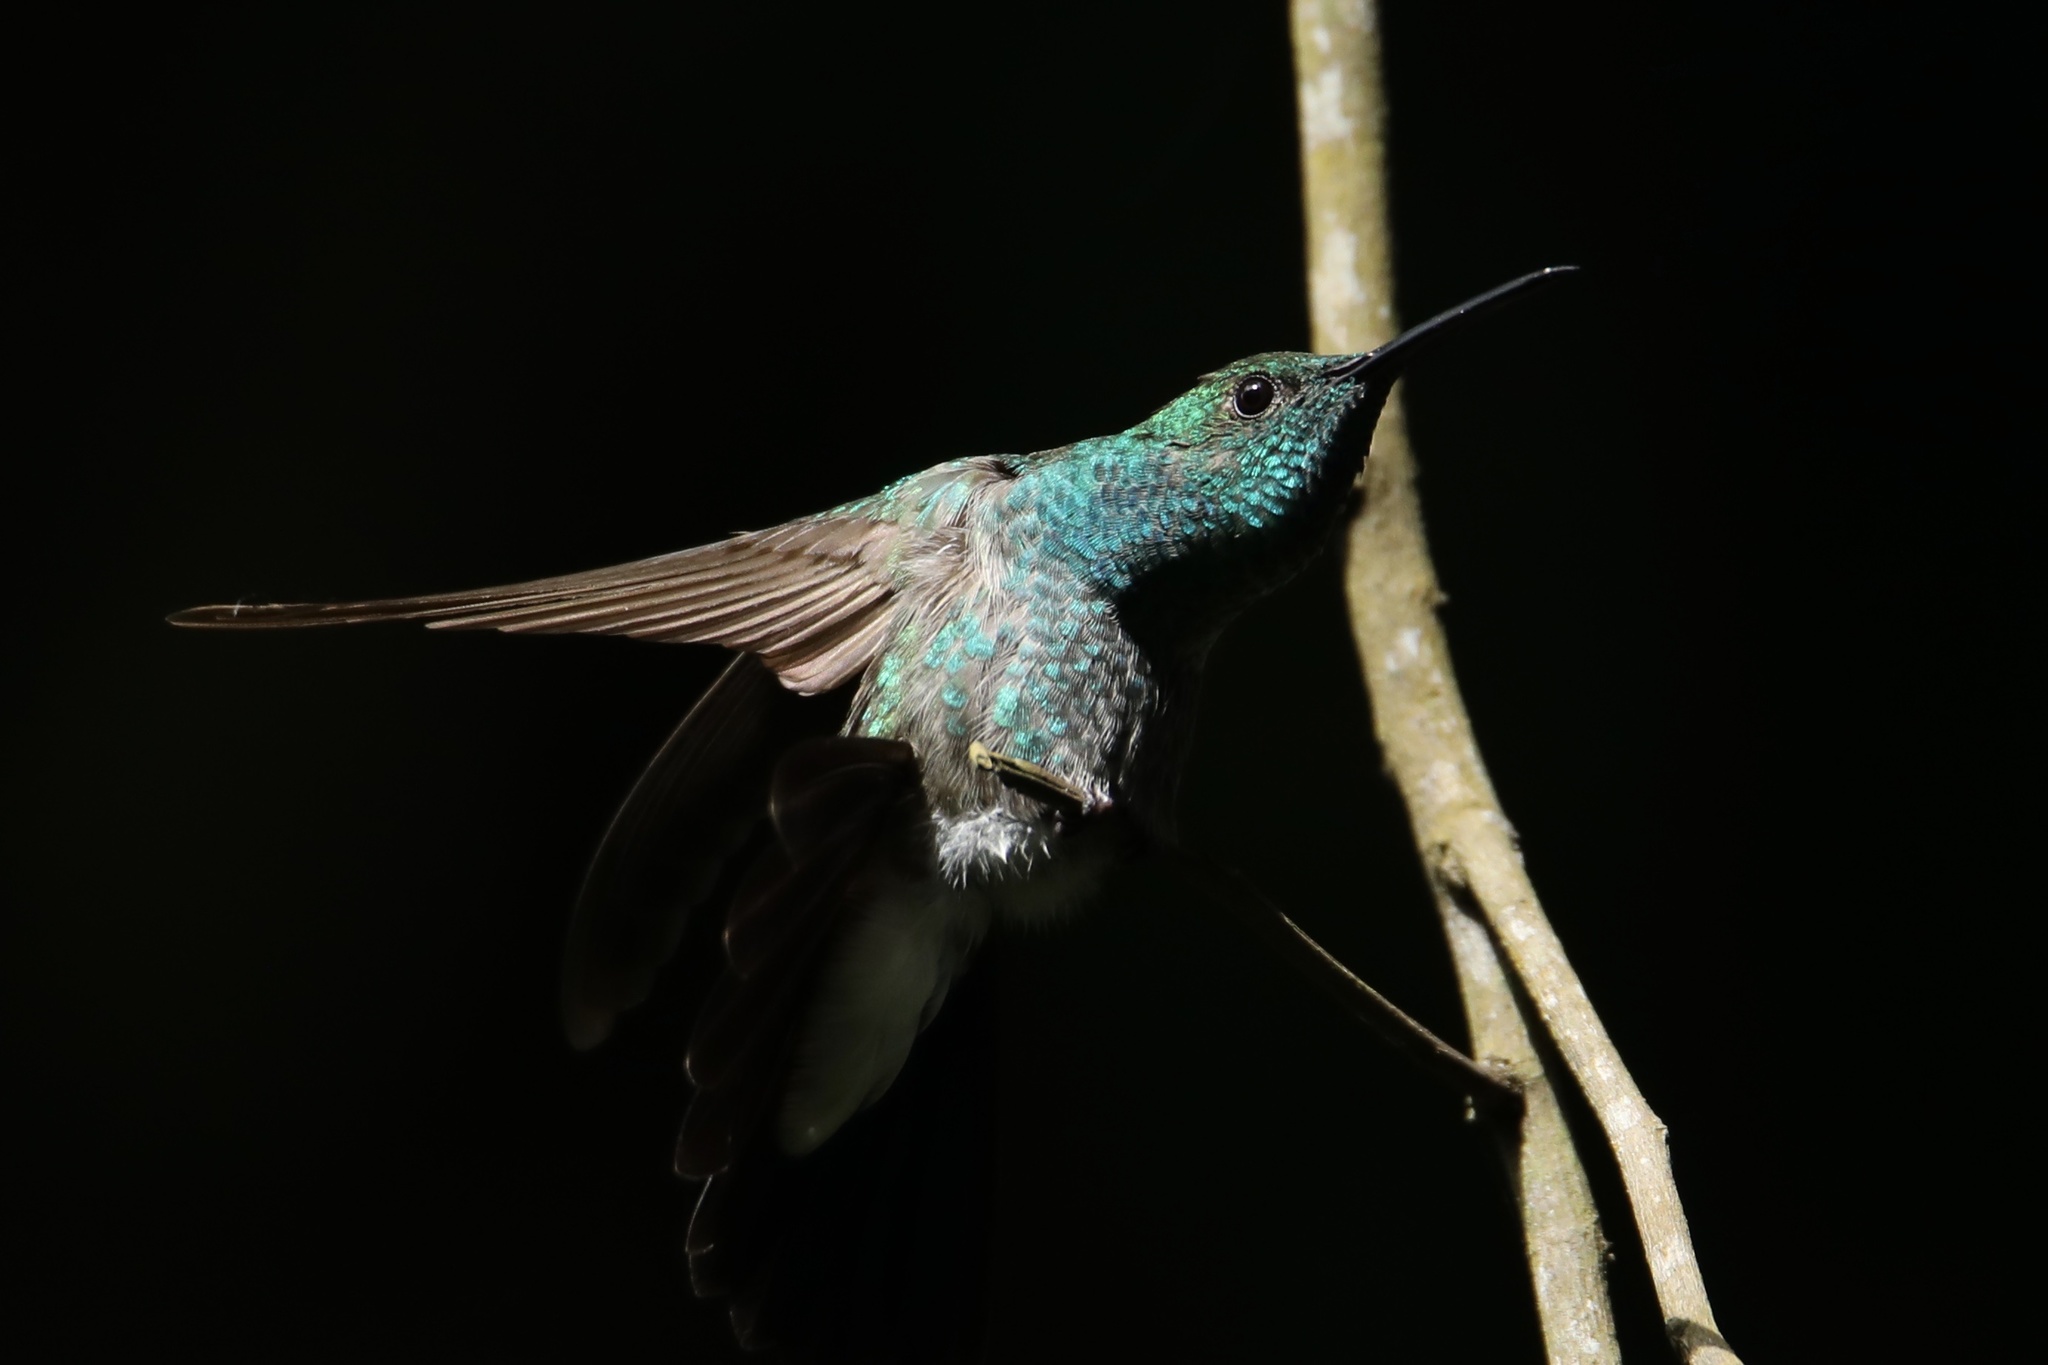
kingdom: Animalia
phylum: Chordata
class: Aves
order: Apodiformes
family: Trochilidae
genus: Chalybura
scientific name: Chalybura buffonii
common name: White-vented plumeleteer
